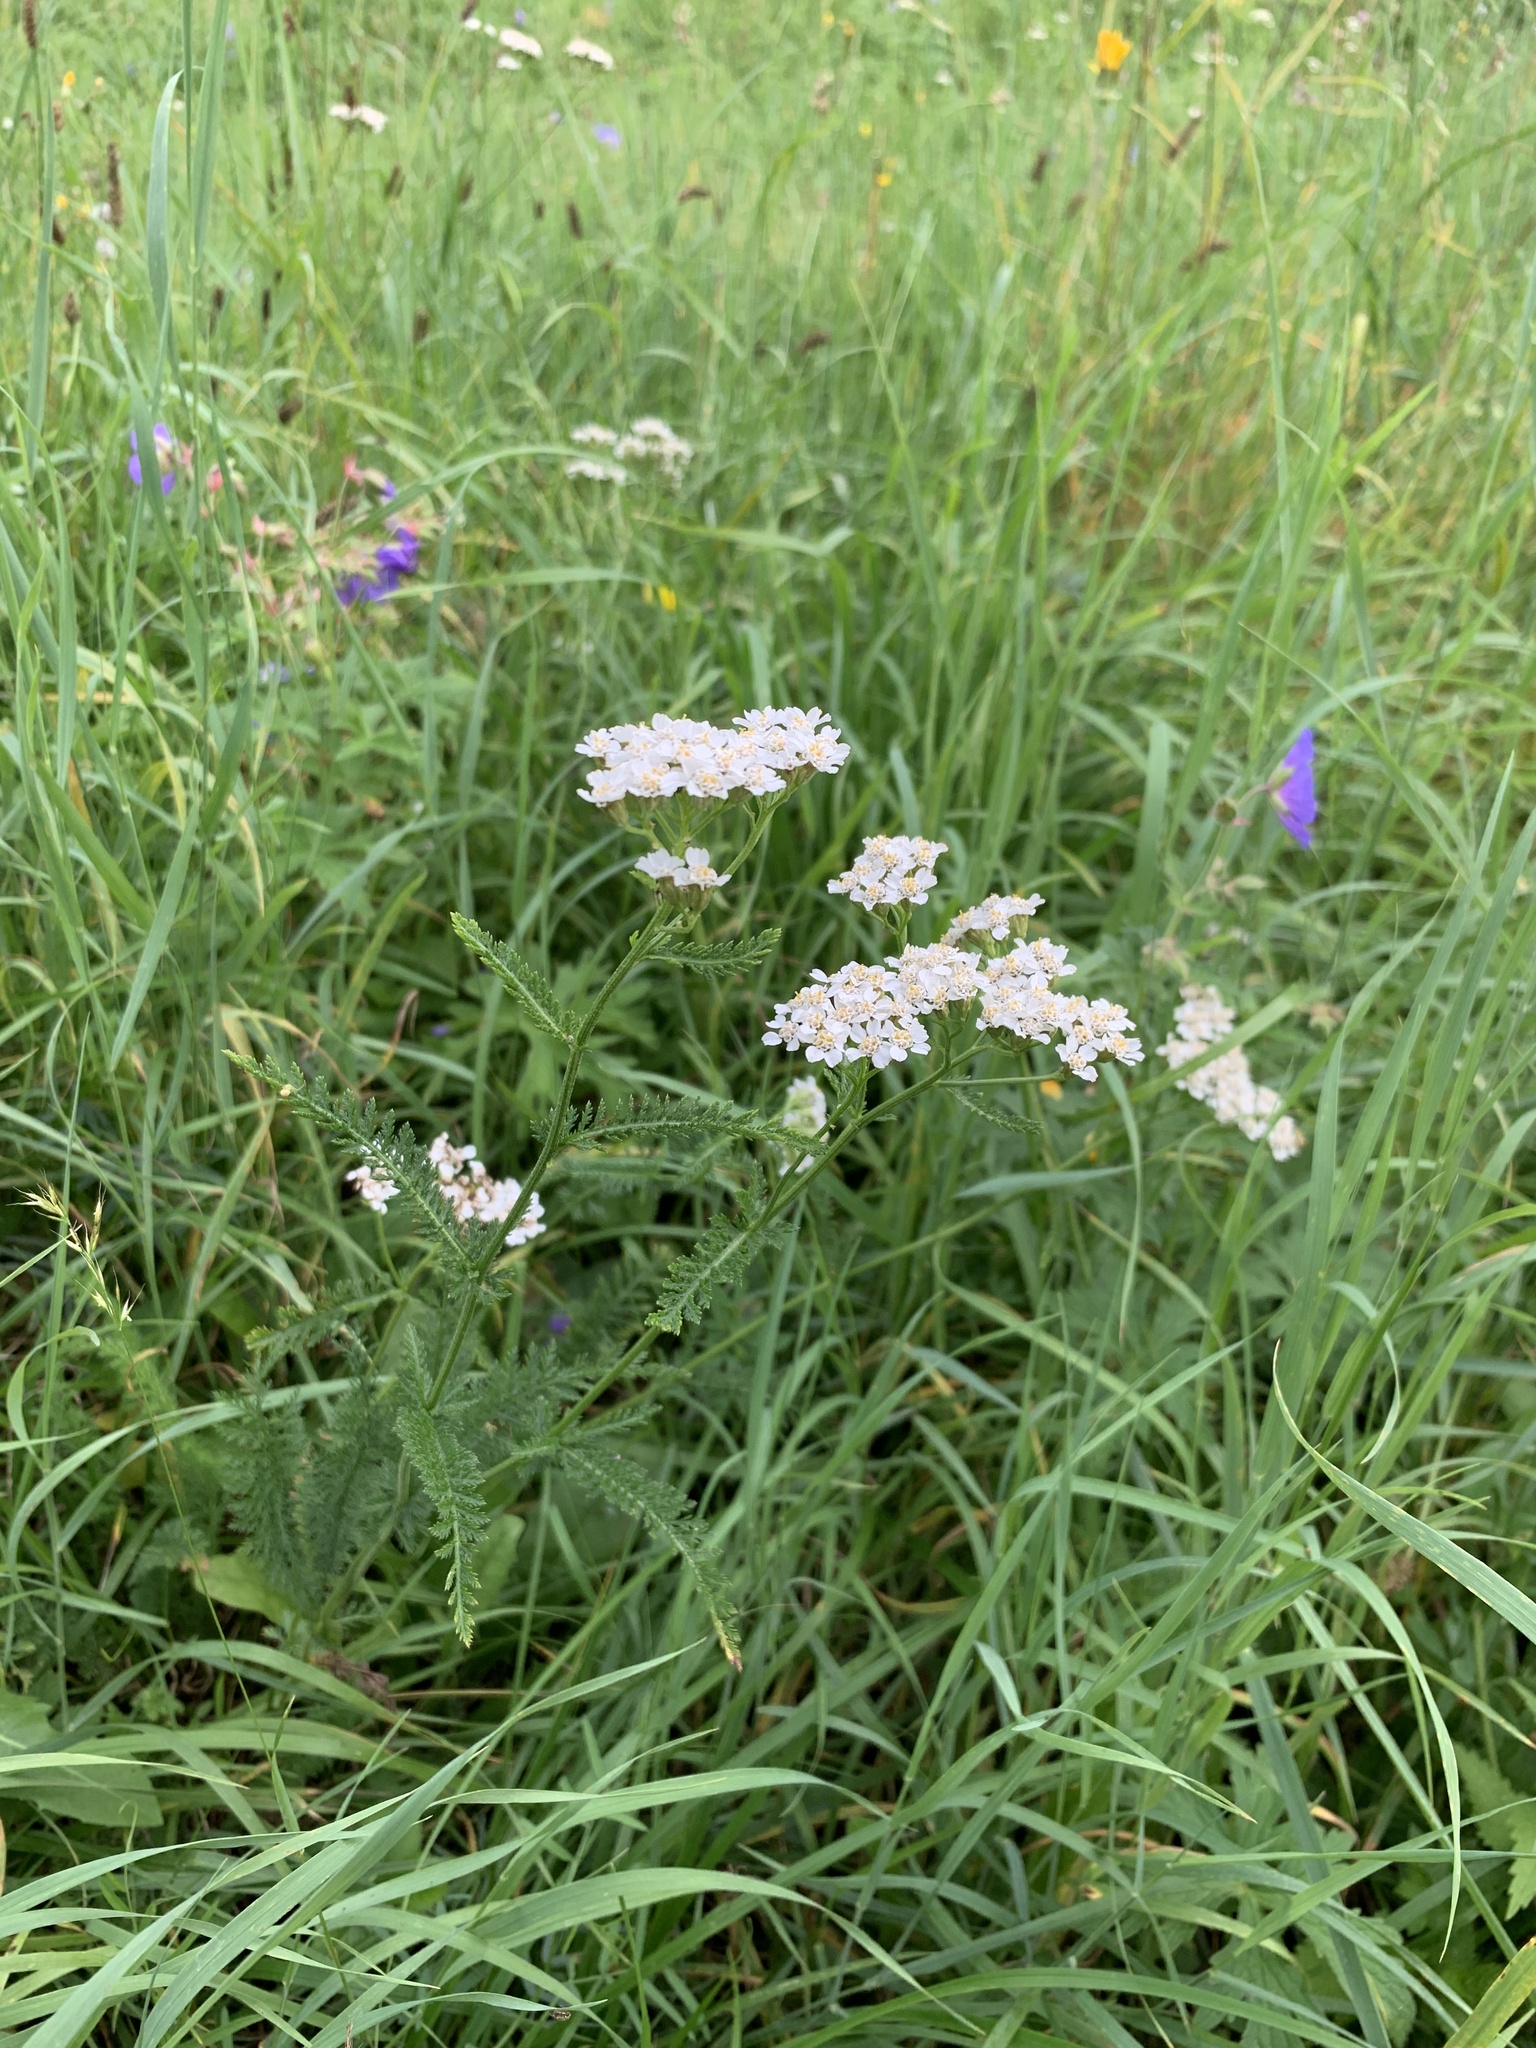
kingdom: Plantae
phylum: Tracheophyta
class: Magnoliopsida
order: Asterales
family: Asteraceae
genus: Achillea
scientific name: Achillea millefolium
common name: Yarrow
